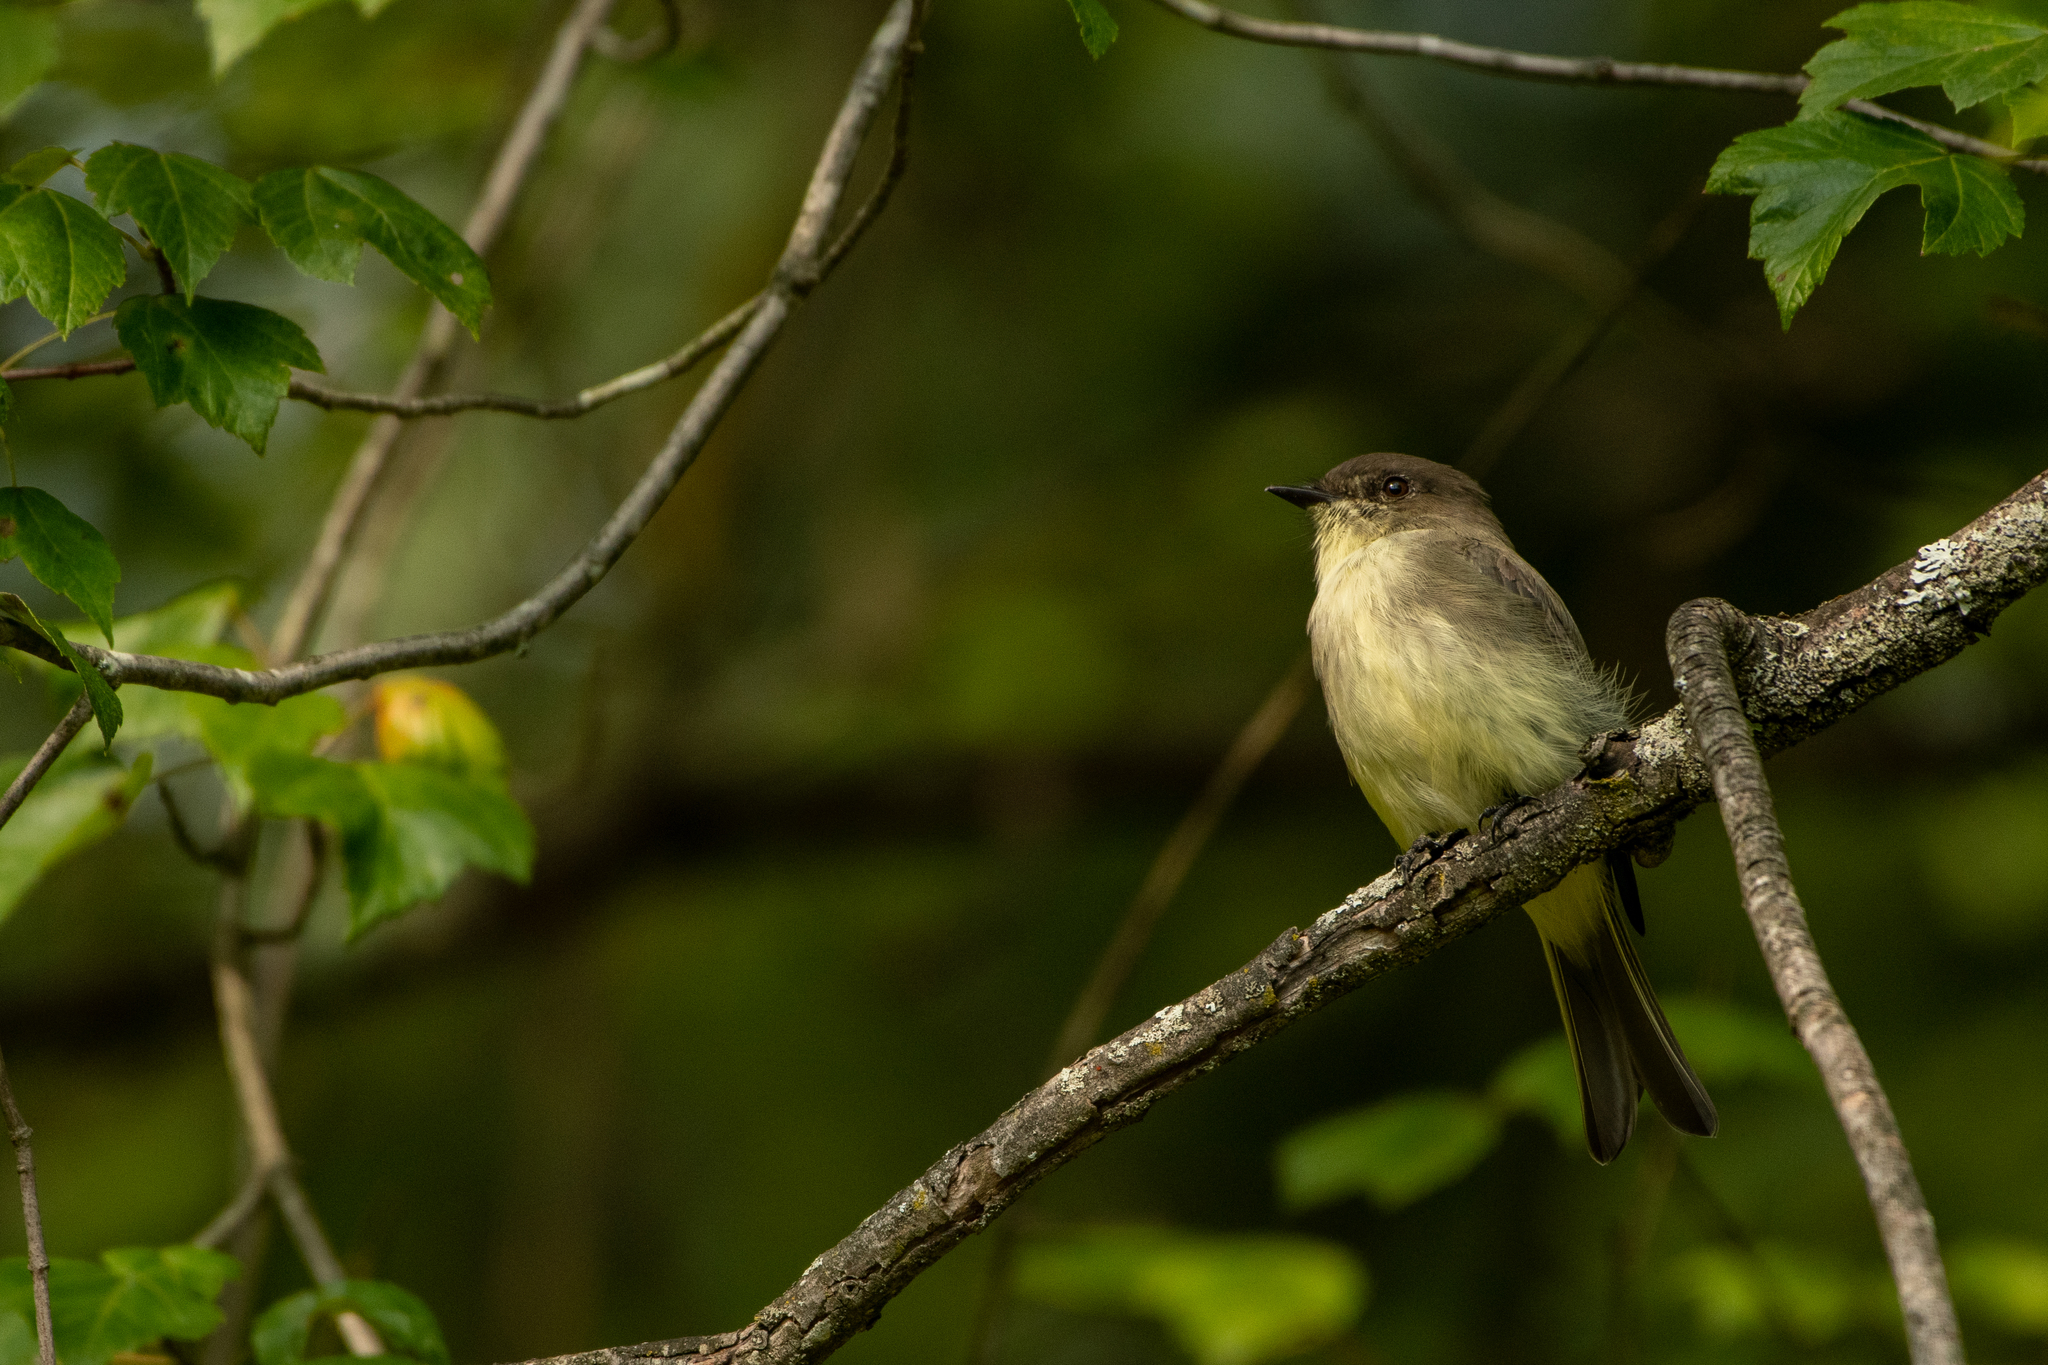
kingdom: Animalia
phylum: Chordata
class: Aves
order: Passeriformes
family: Tyrannidae
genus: Sayornis
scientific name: Sayornis phoebe
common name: Eastern phoebe
